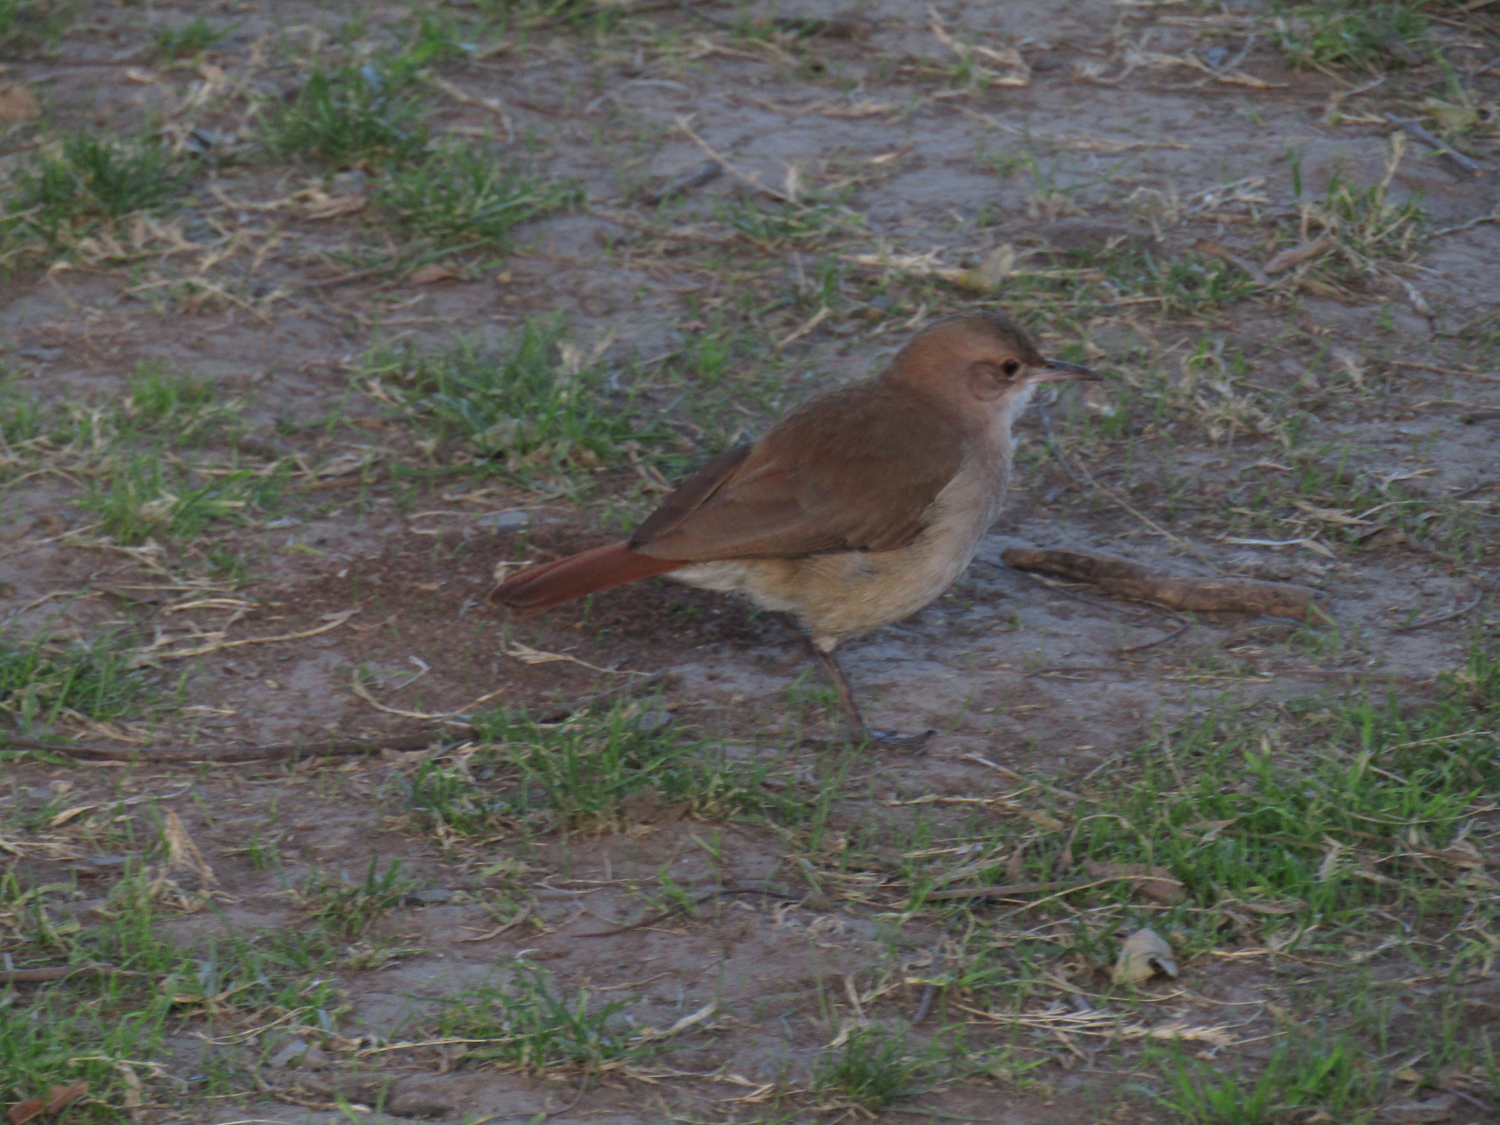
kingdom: Animalia
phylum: Chordata
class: Aves
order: Passeriformes
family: Furnariidae
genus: Furnarius
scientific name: Furnarius rufus
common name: Rufous hornero
